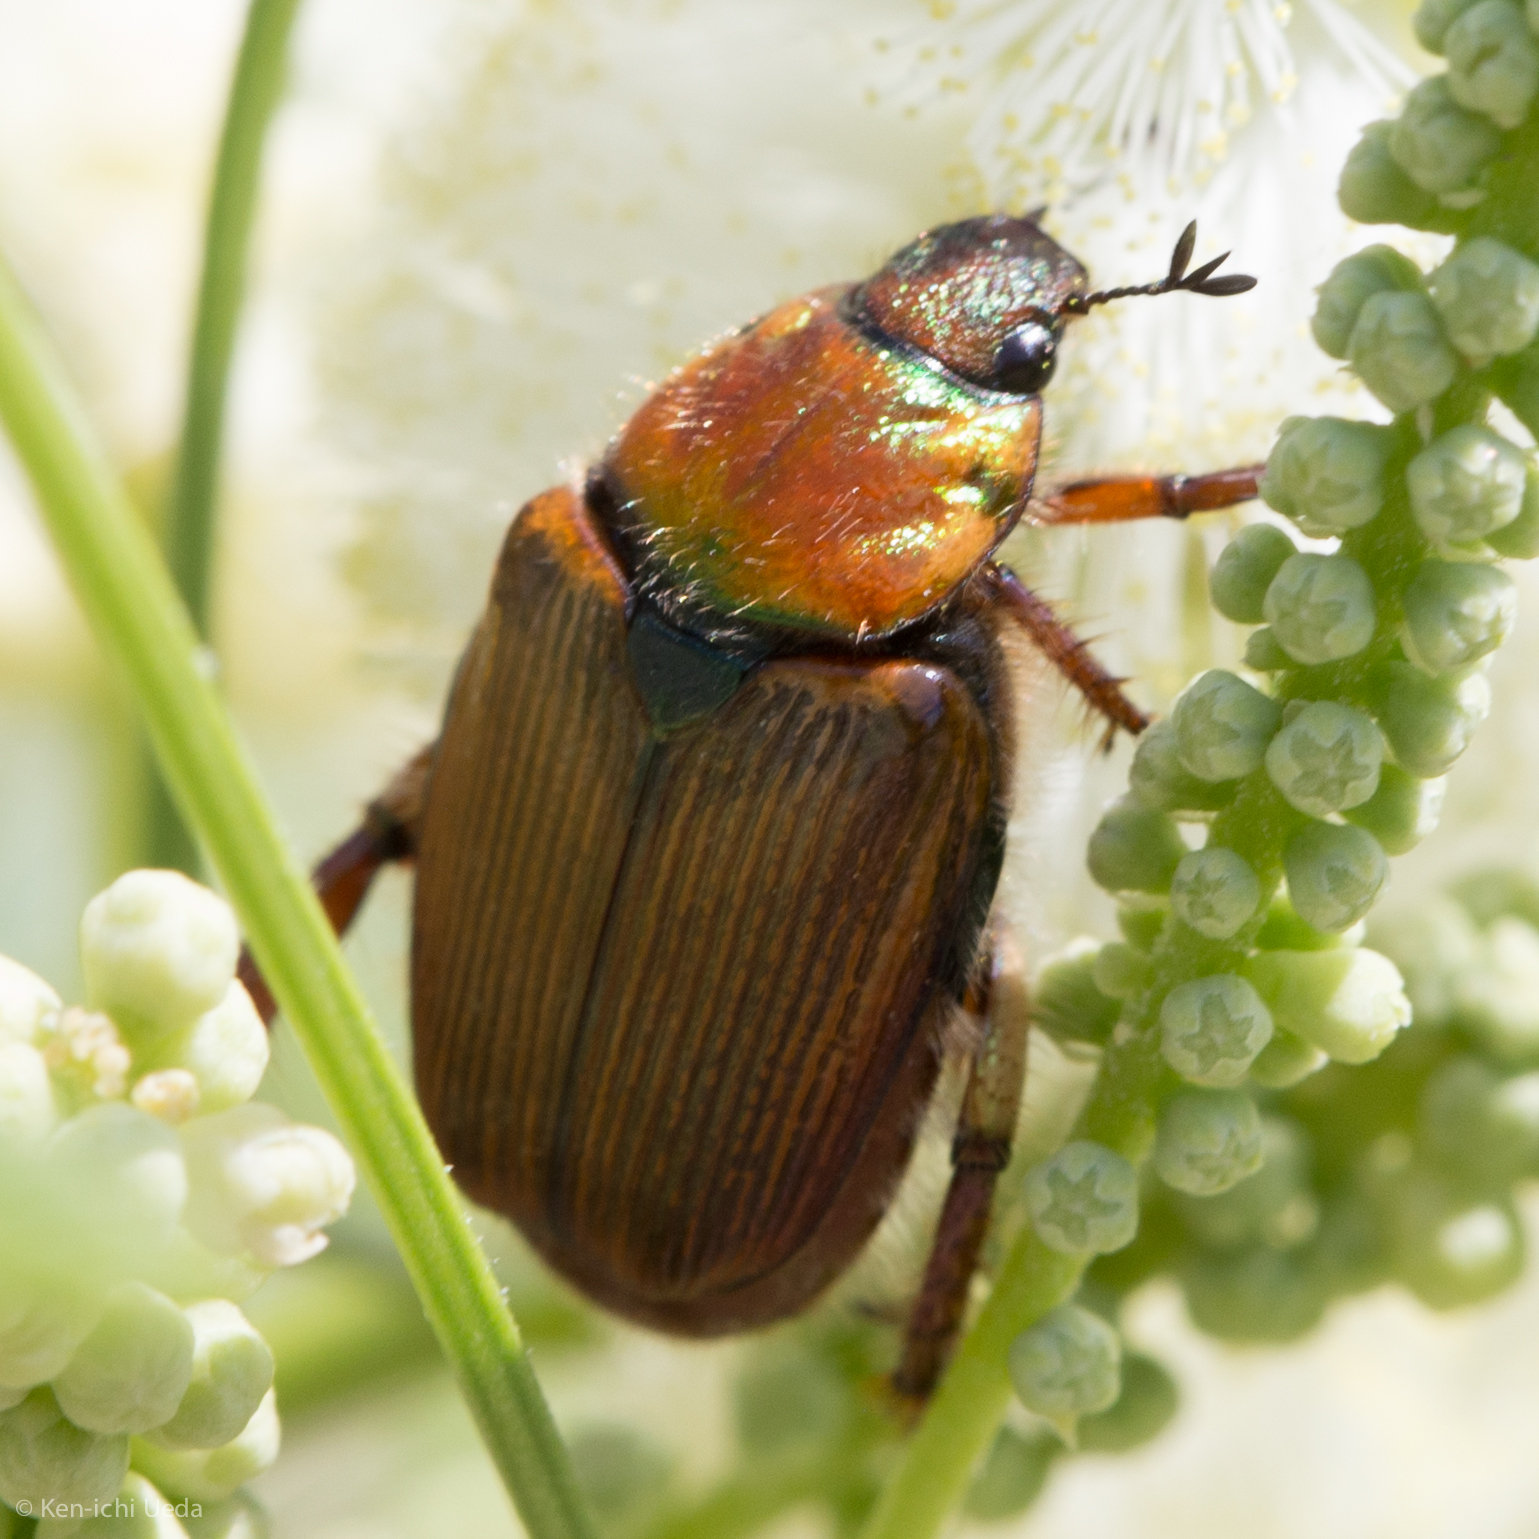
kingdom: Animalia
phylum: Arthropoda
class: Insecta
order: Coleoptera
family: Scarabaeidae
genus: Strigoderma
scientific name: Strigoderma pimalis
